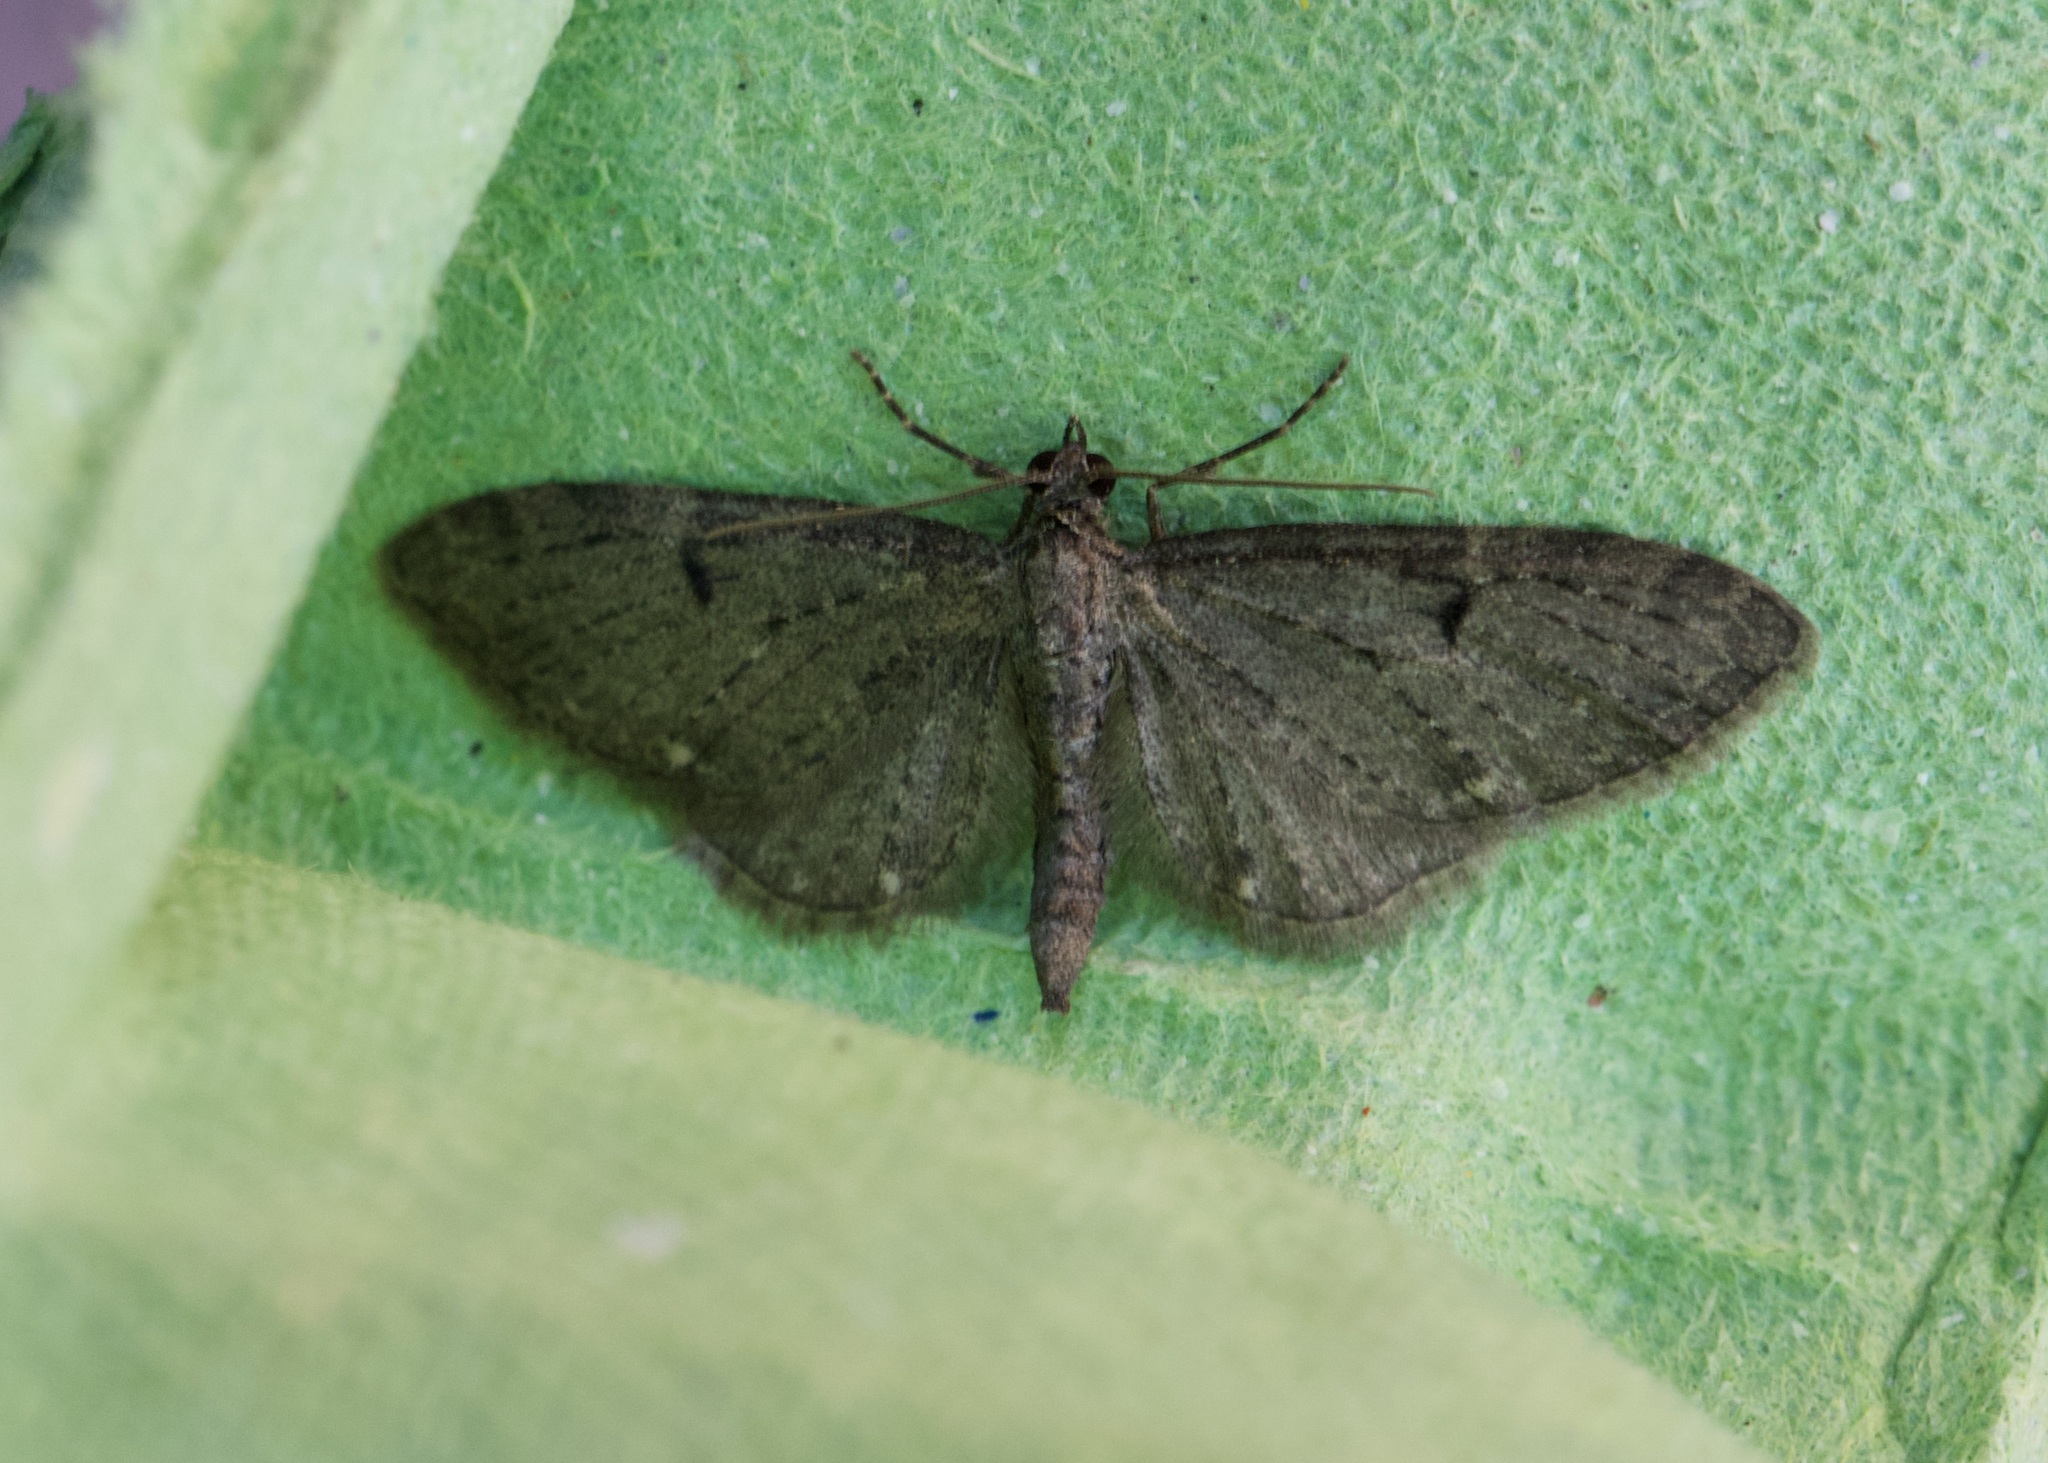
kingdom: Animalia
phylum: Arthropoda
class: Insecta
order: Lepidoptera
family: Geometridae
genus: Eupithecia
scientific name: Eupithecia virgaureata
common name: Golden-rod pug
